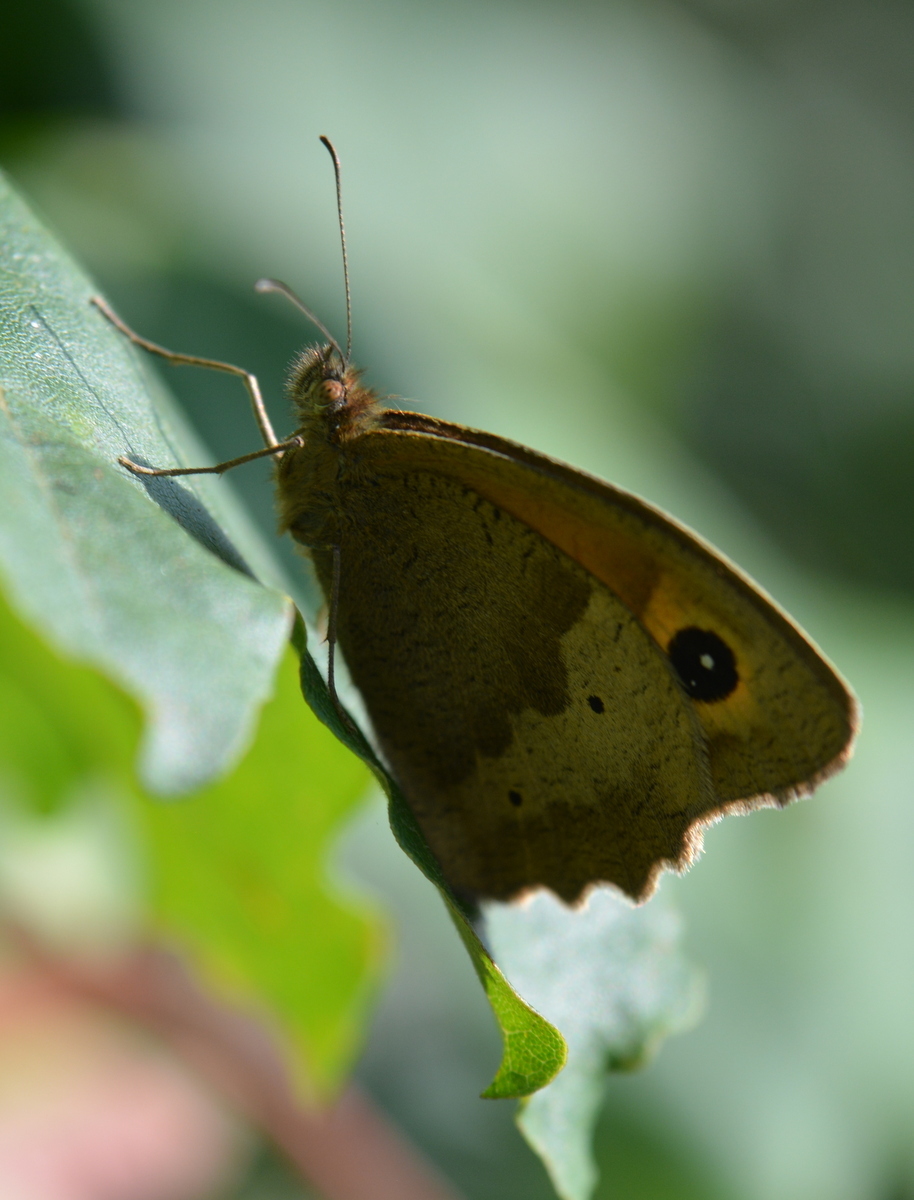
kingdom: Animalia
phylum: Arthropoda
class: Insecta
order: Lepidoptera
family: Nymphalidae
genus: Maniola
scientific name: Maniola jurtina
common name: Meadow brown
